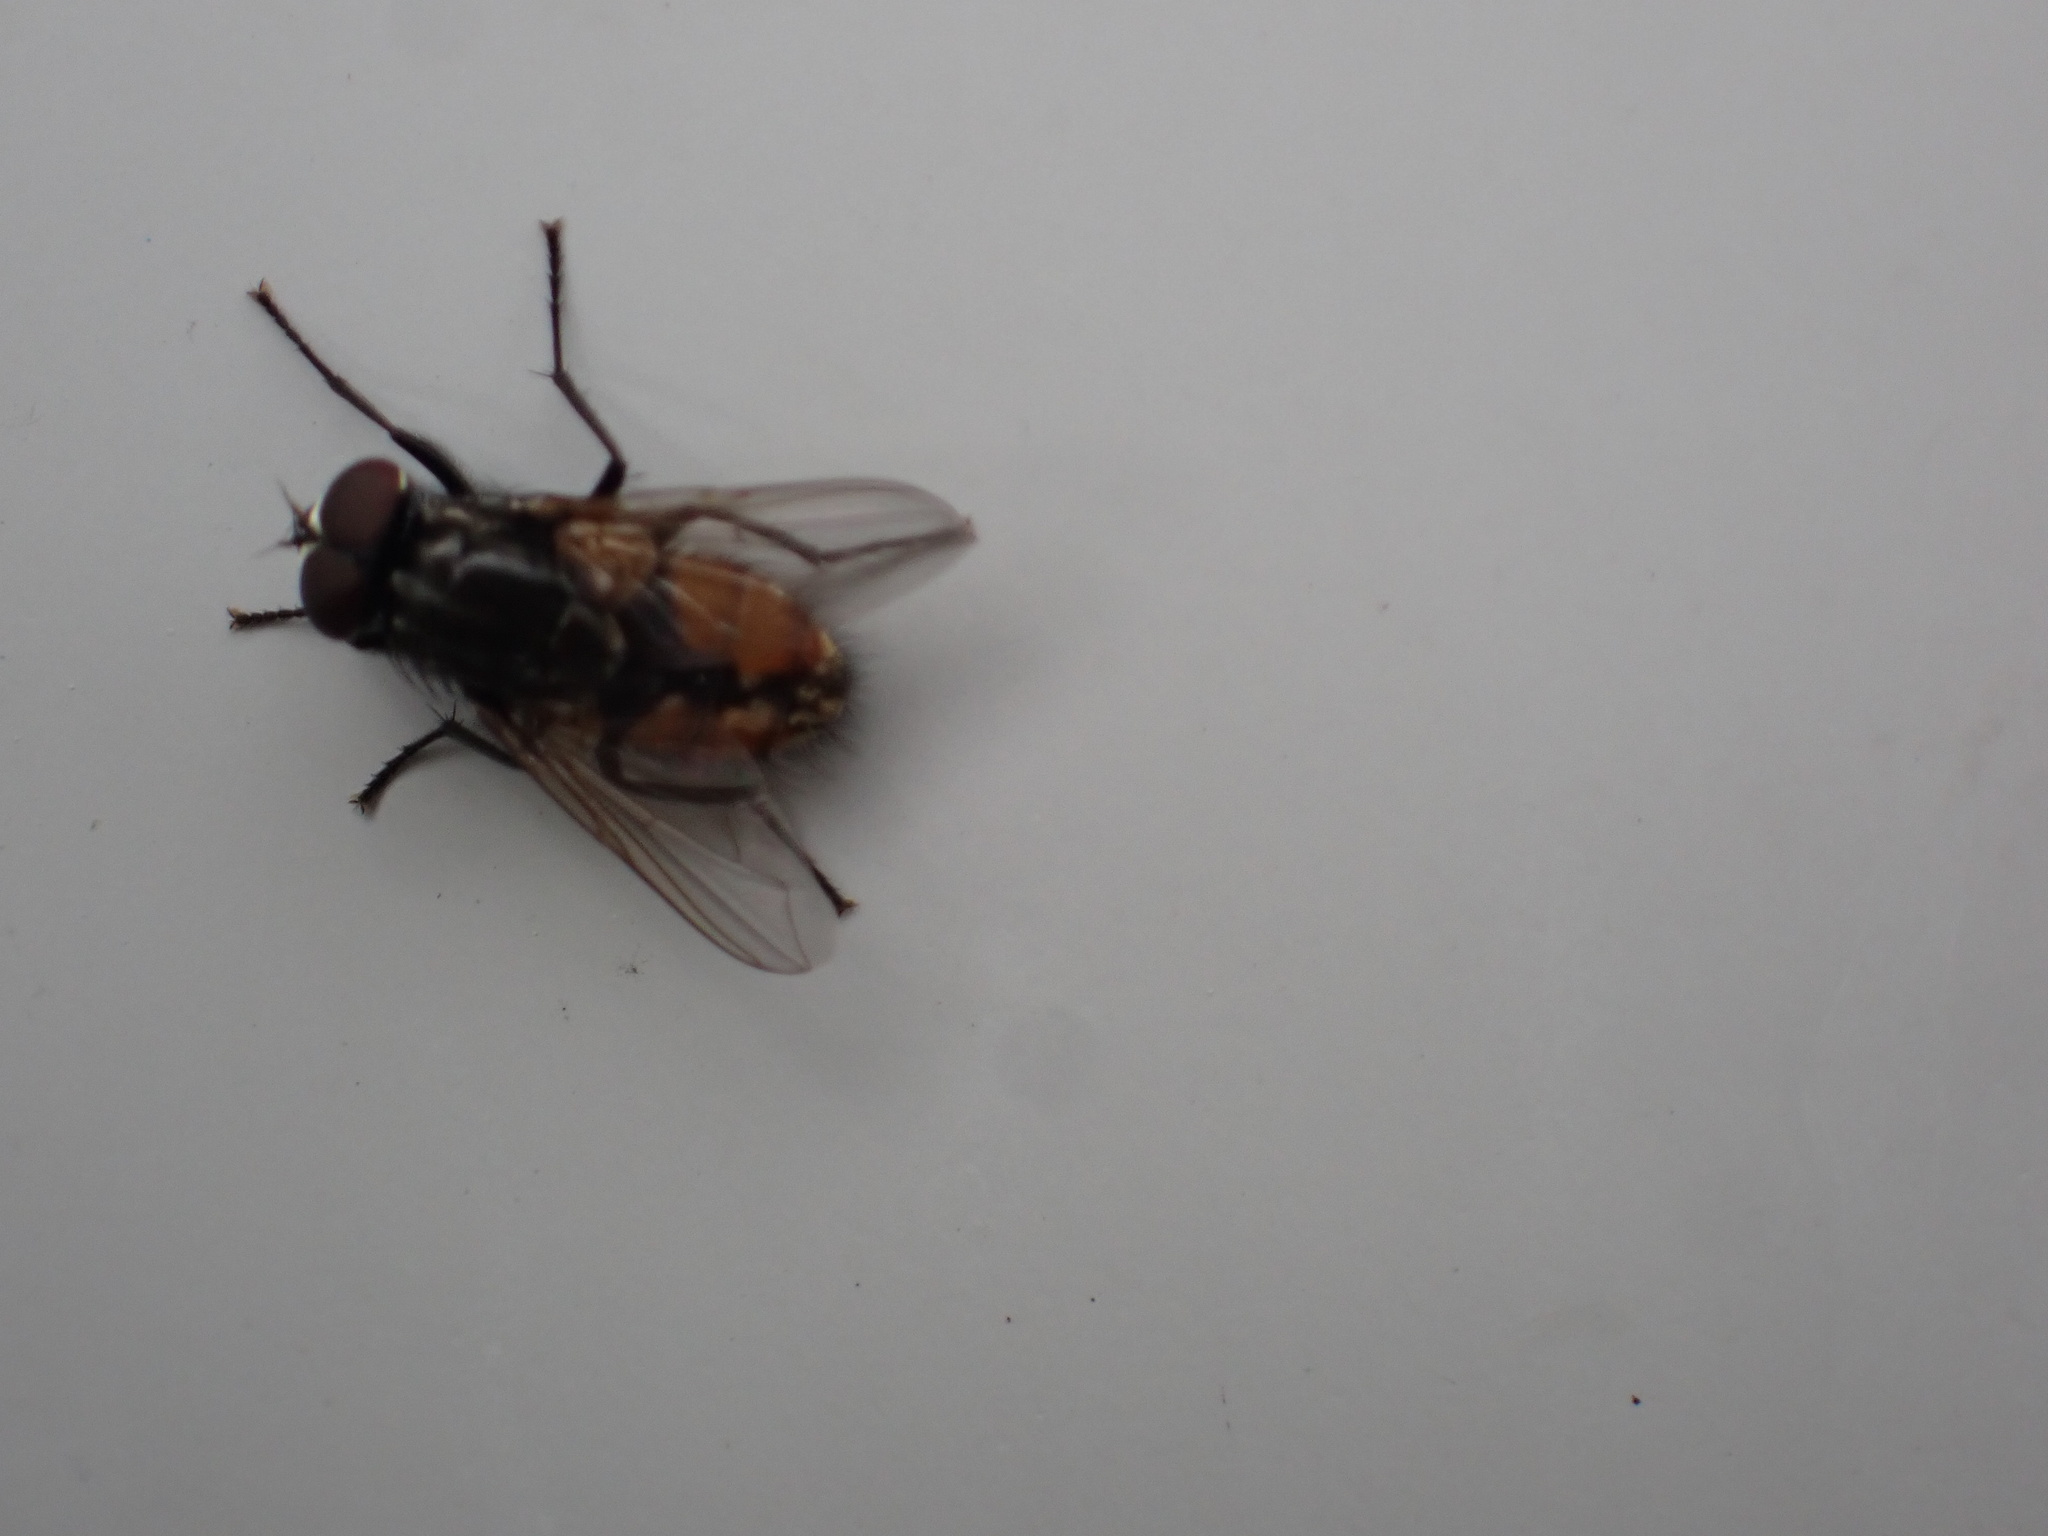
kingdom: Animalia
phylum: Arthropoda
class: Insecta
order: Diptera
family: Muscidae
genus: Musca
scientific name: Musca autumnalis
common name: Face fly
